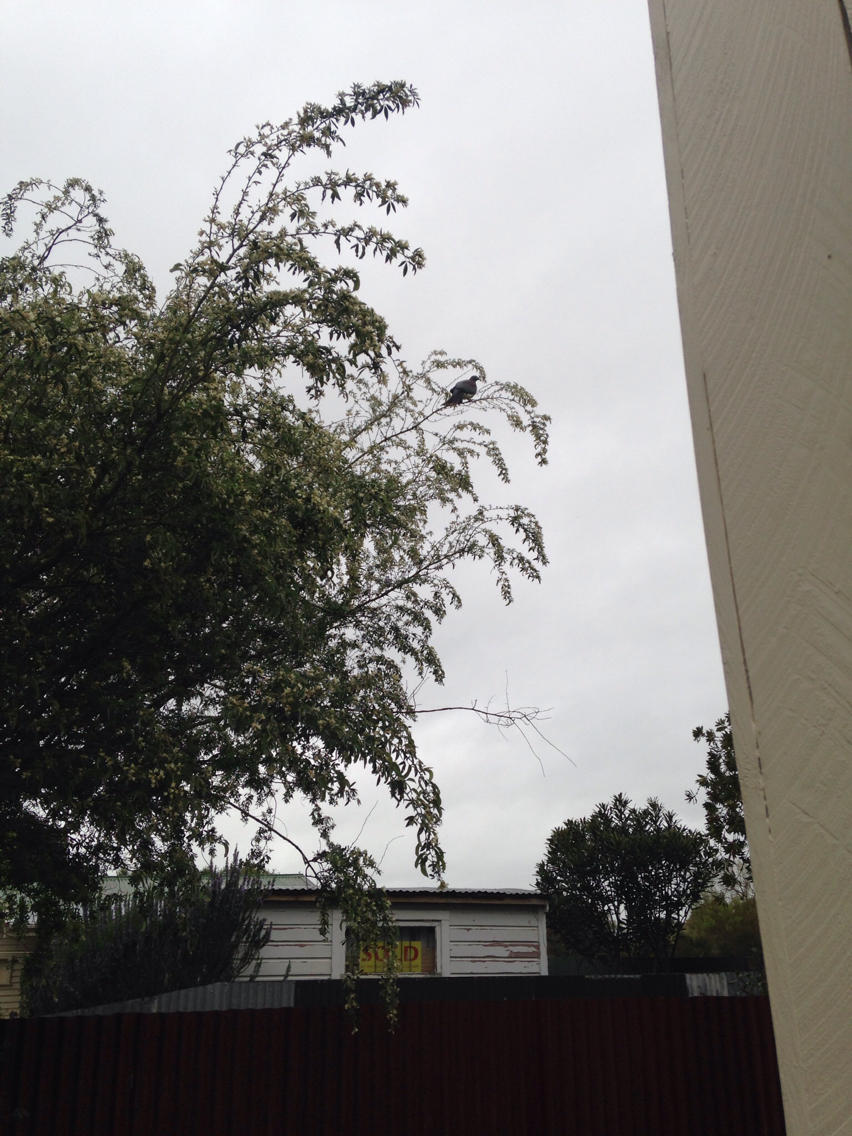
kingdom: Animalia
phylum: Chordata
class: Aves
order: Columbiformes
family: Columbidae
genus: Hemiphaga
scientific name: Hemiphaga novaeseelandiae
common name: New zealand pigeon
